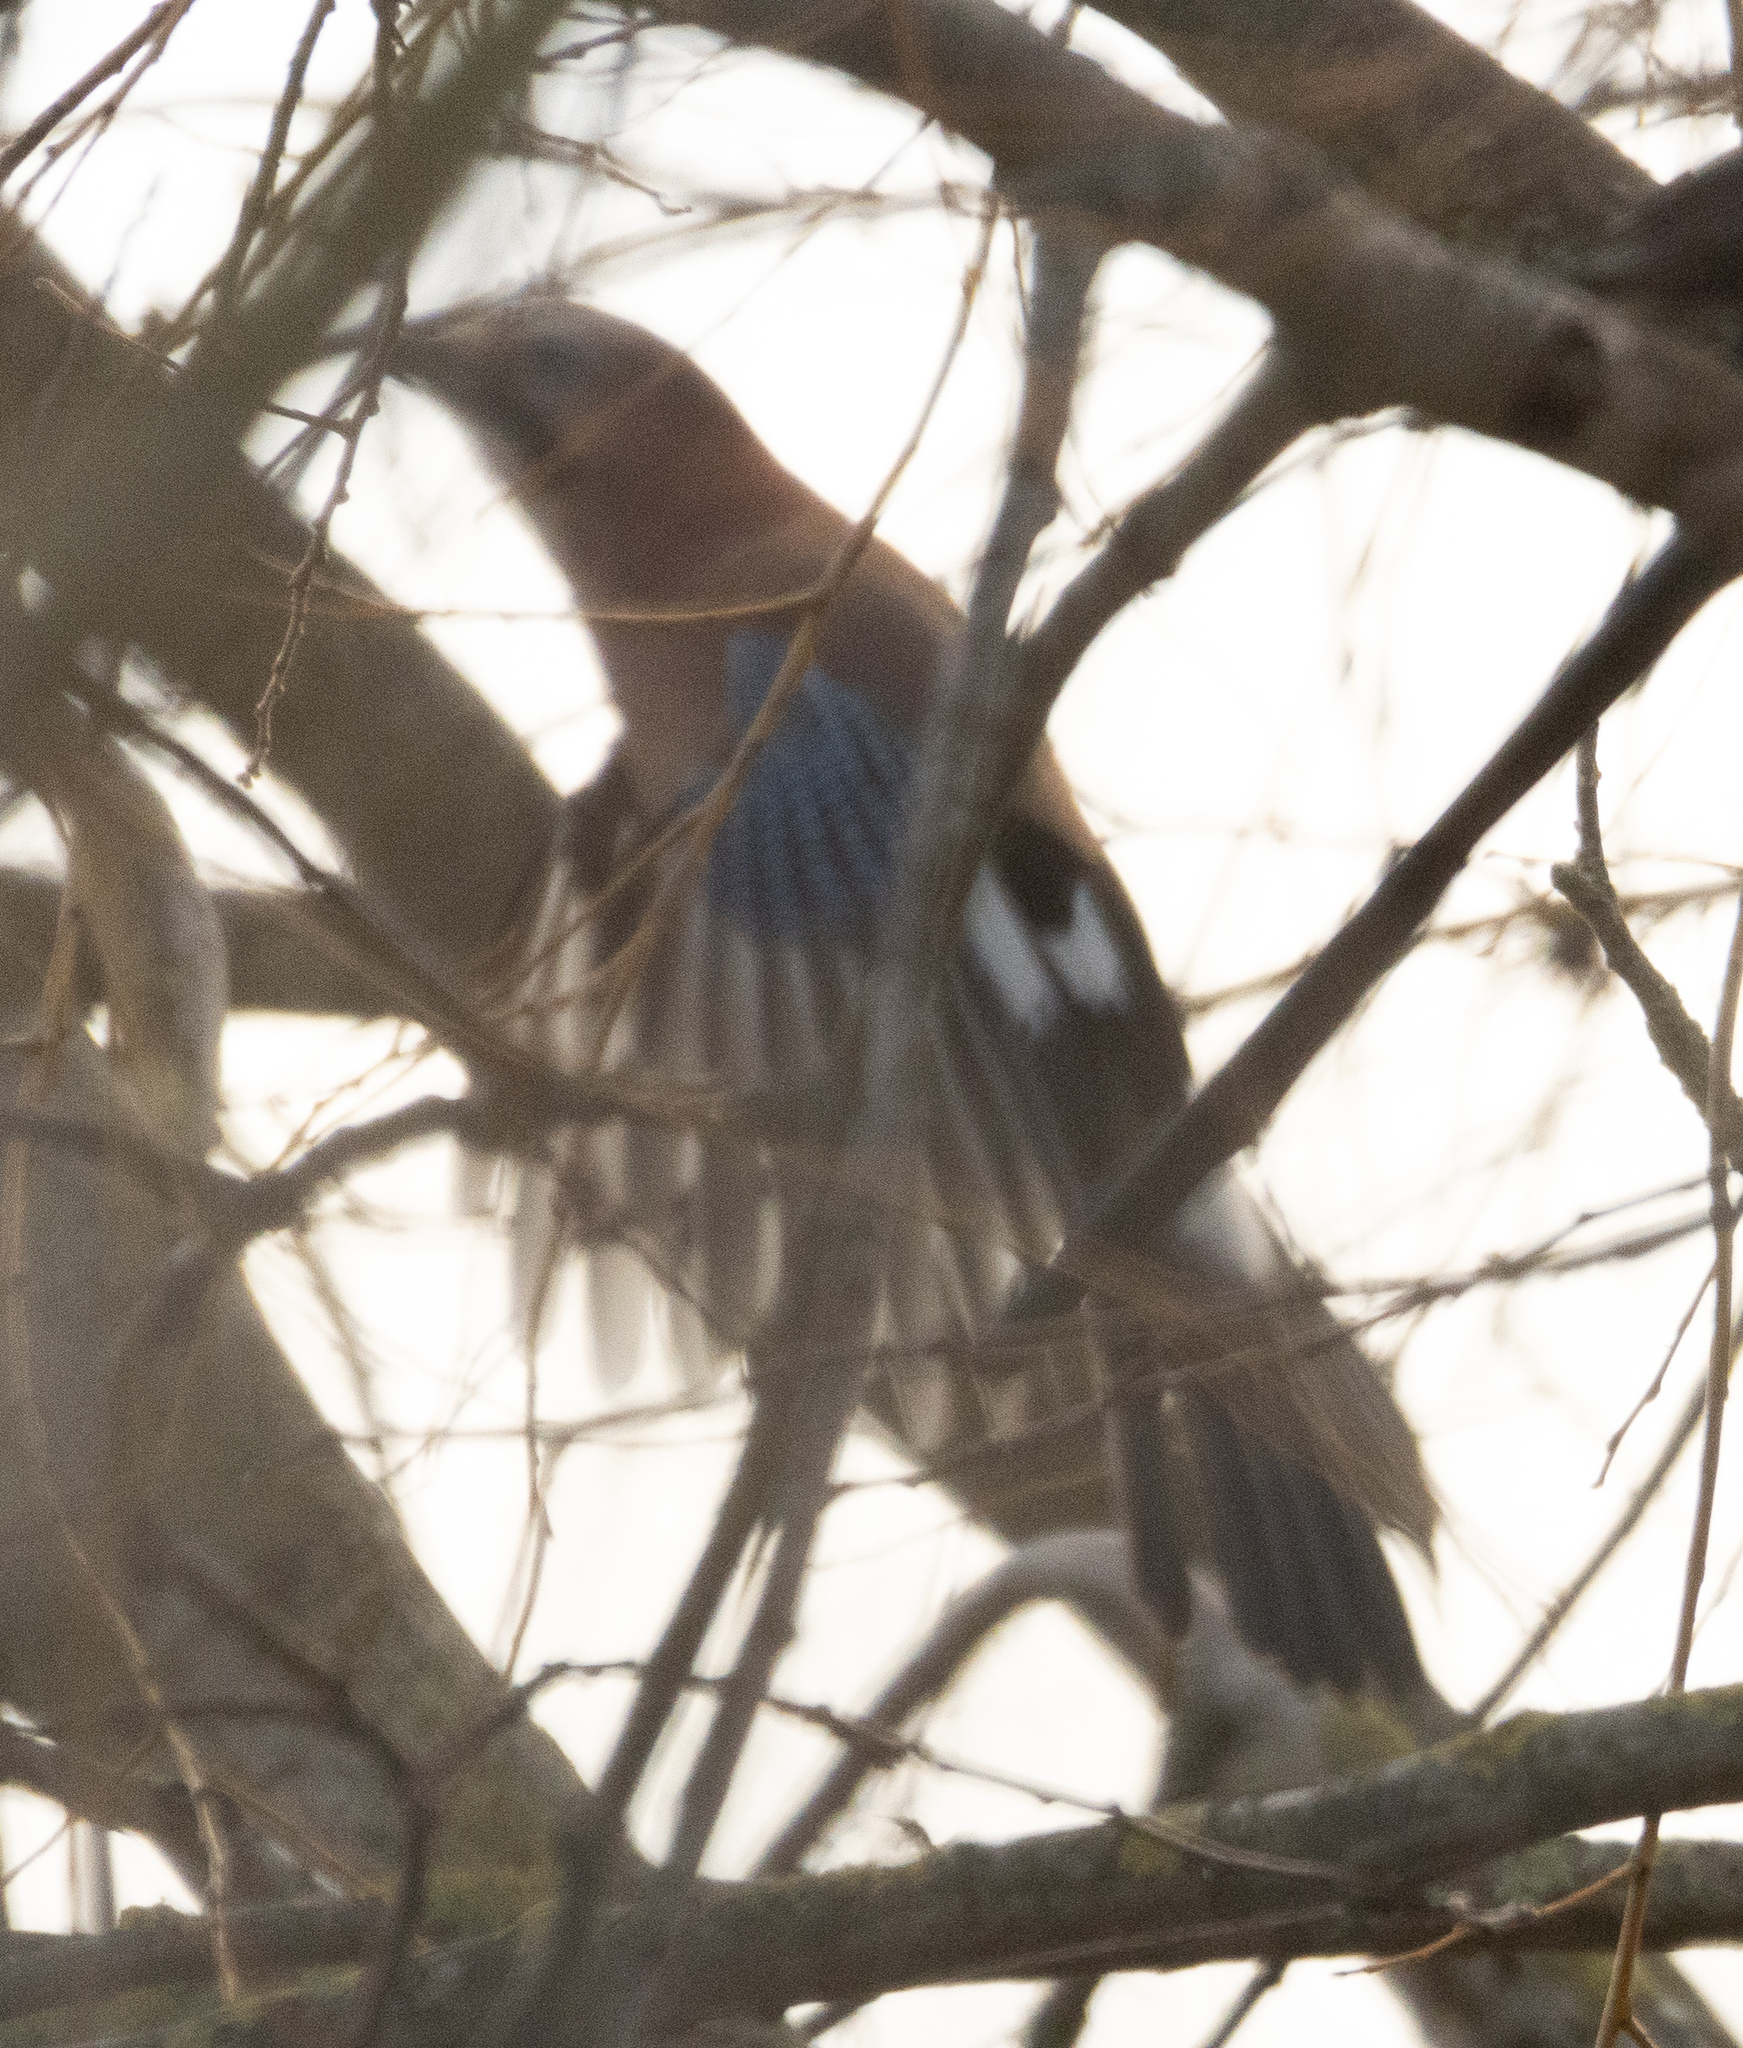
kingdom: Animalia
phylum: Chordata
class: Aves
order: Passeriformes
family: Corvidae
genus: Garrulus
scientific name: Garrulus glandarius
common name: Eurasian jay
